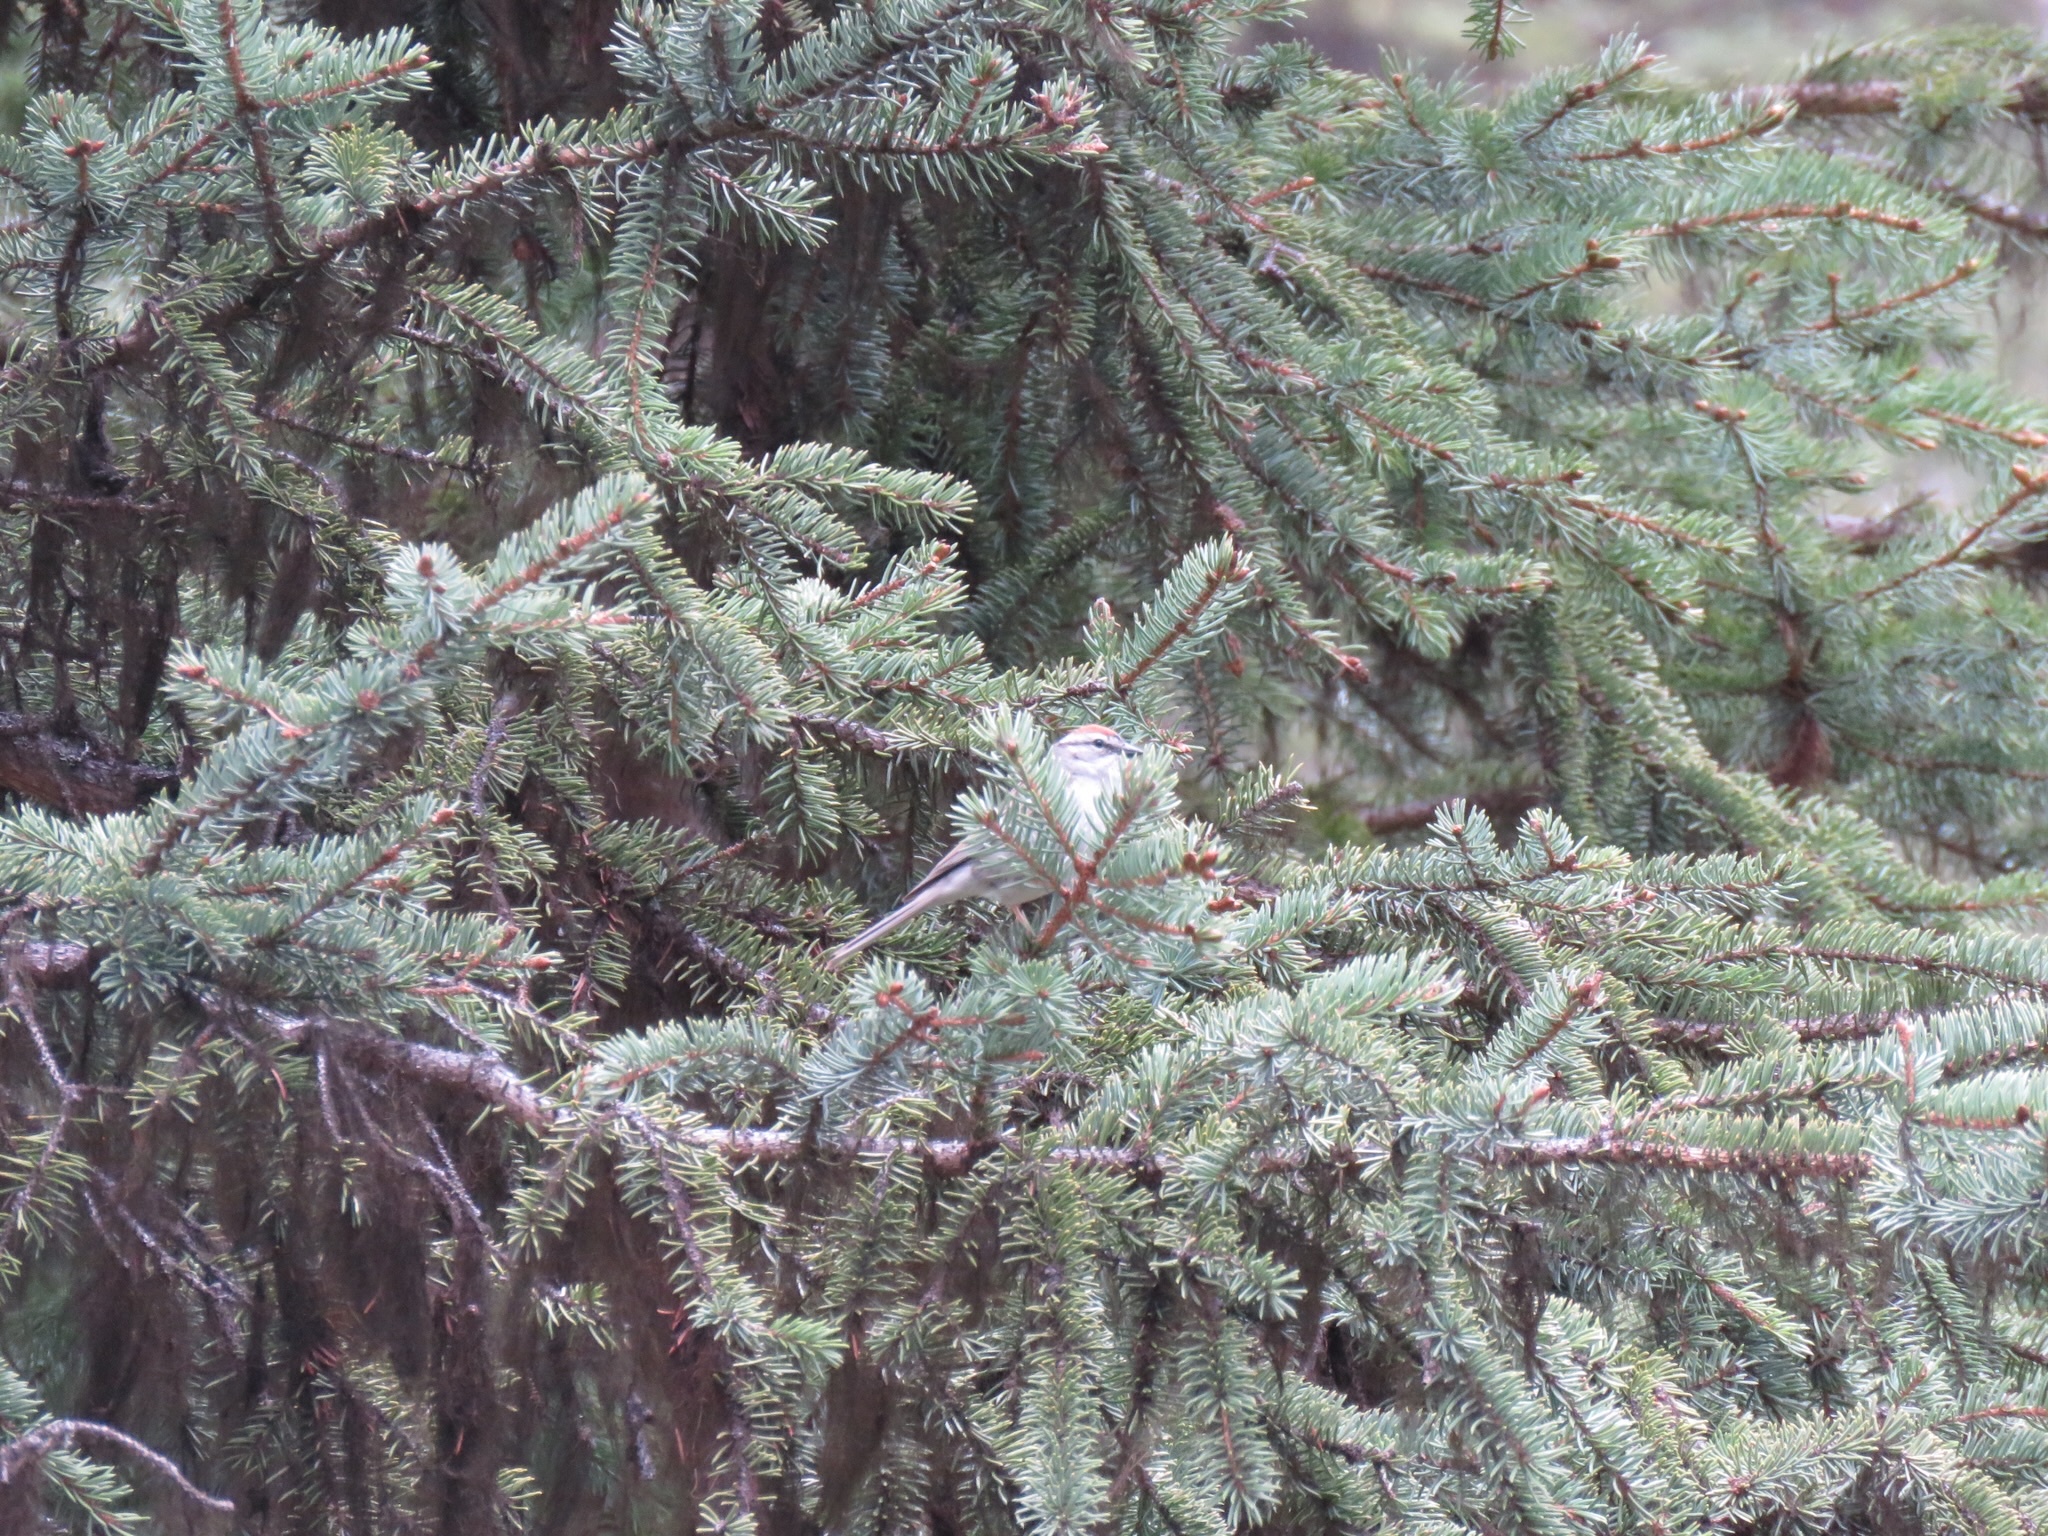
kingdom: Animalia
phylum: Chordata
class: Aves
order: Passeriformes
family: Passerellidae
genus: Spizella
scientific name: Spizella passerina
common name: Chipping sparrow
